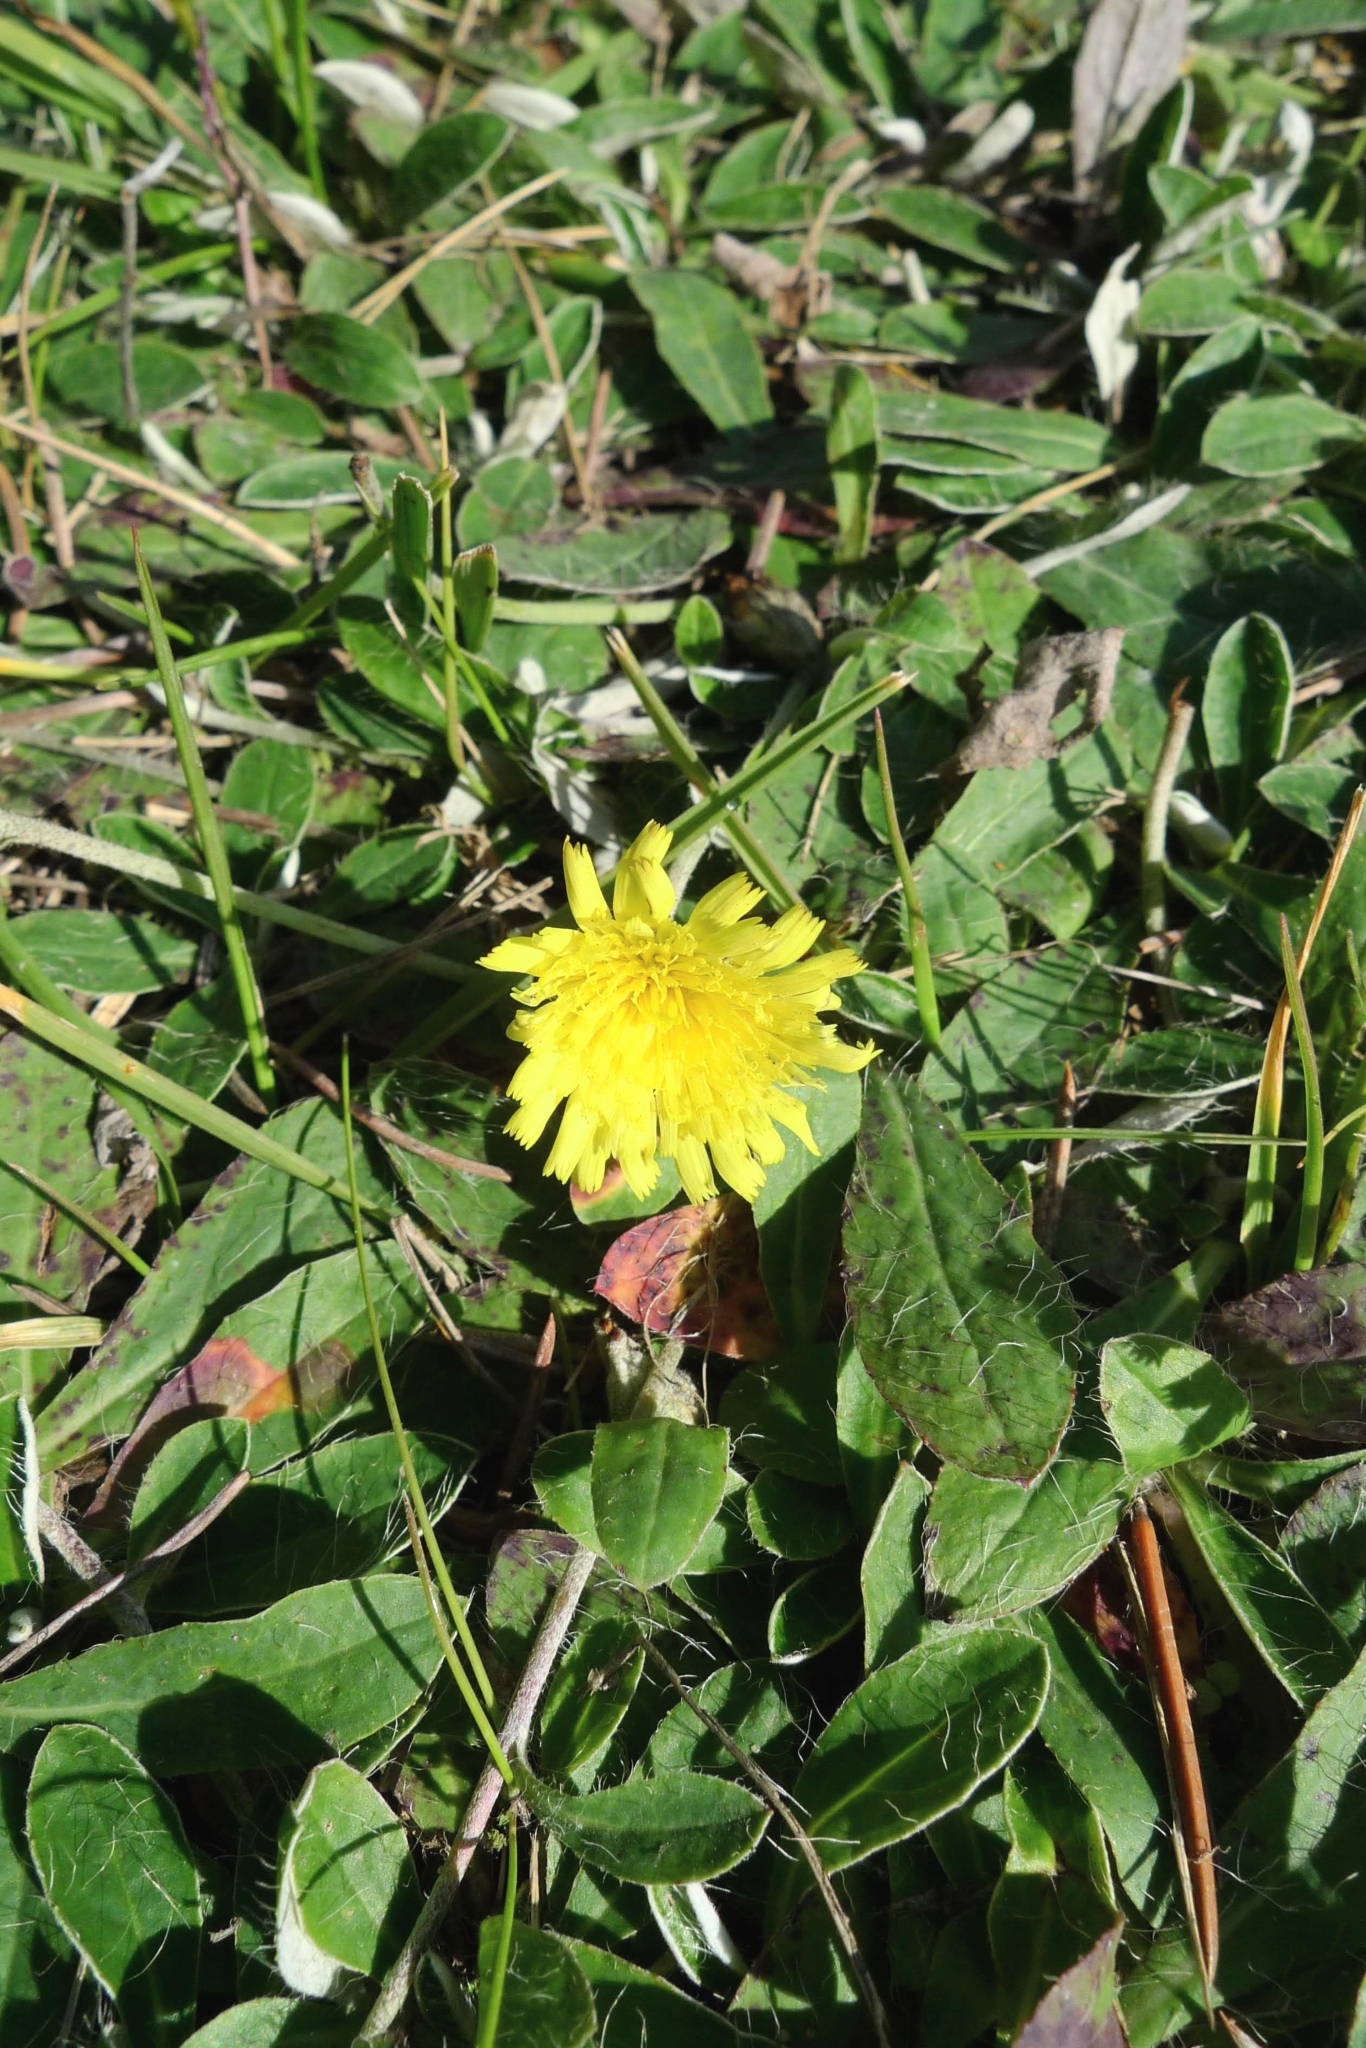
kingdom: Plantae
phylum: Tracheophyta
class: Magnoliopsida
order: Asterales
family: Asteraceae
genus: Pilosella
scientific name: Pilosella officinarum
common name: Mouse-ear hawkweed
